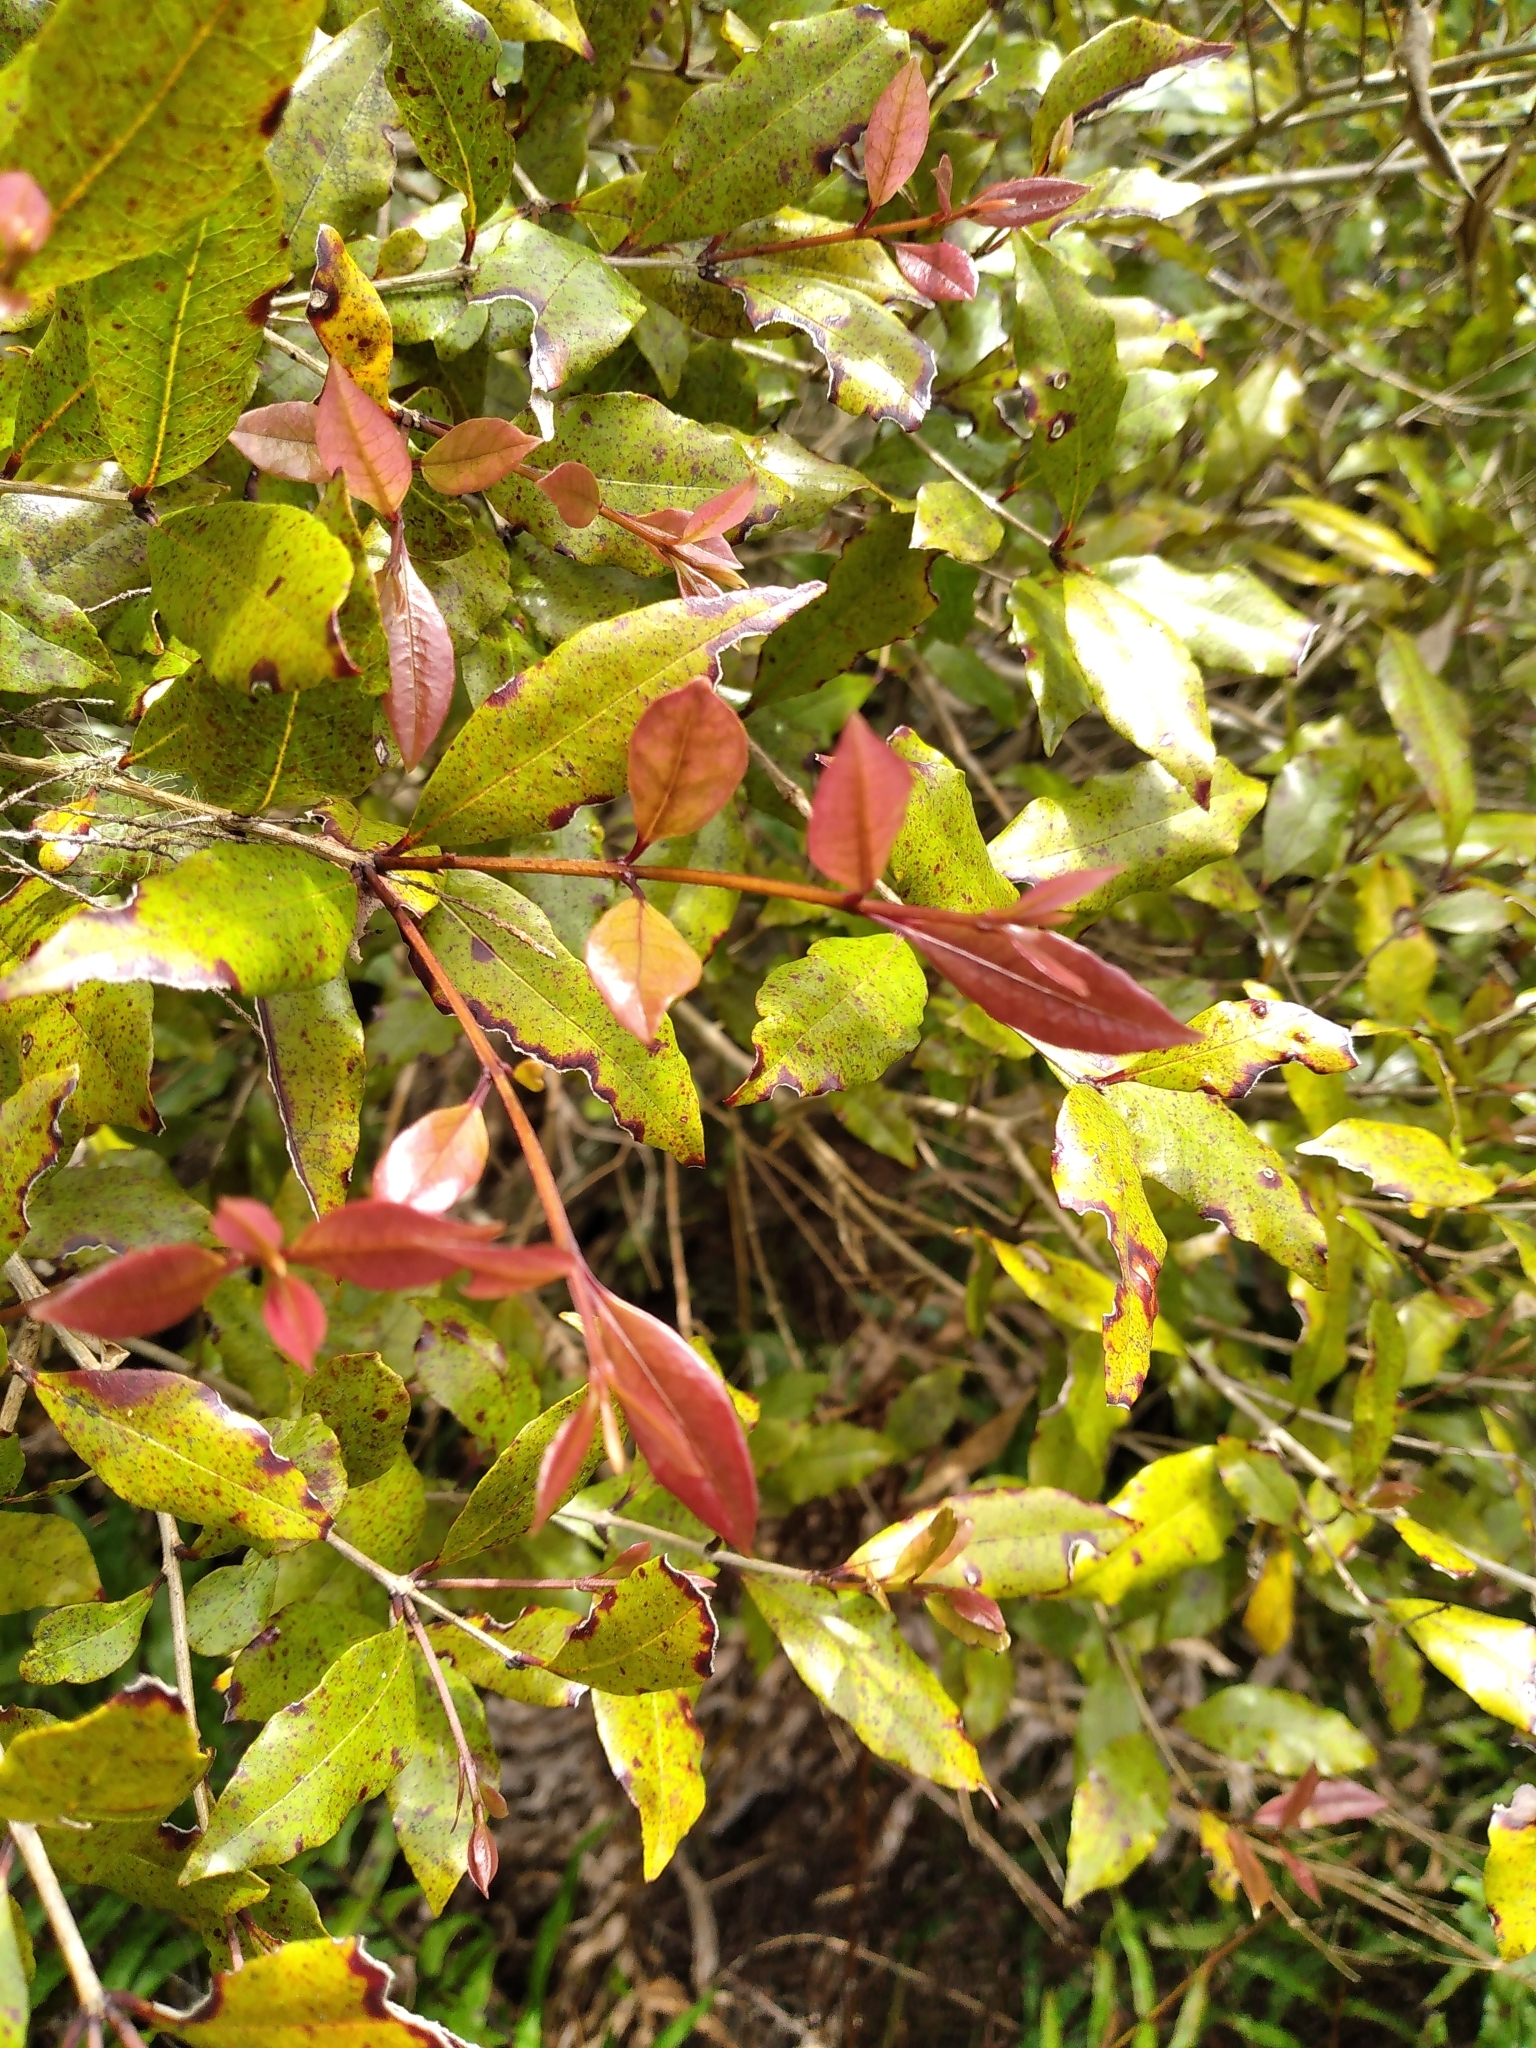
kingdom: Plantae
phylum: Tracheophyta
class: Magnoliopsida
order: Myrtales
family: Myrtaceae
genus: Syzygium
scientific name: Syzygium maire
